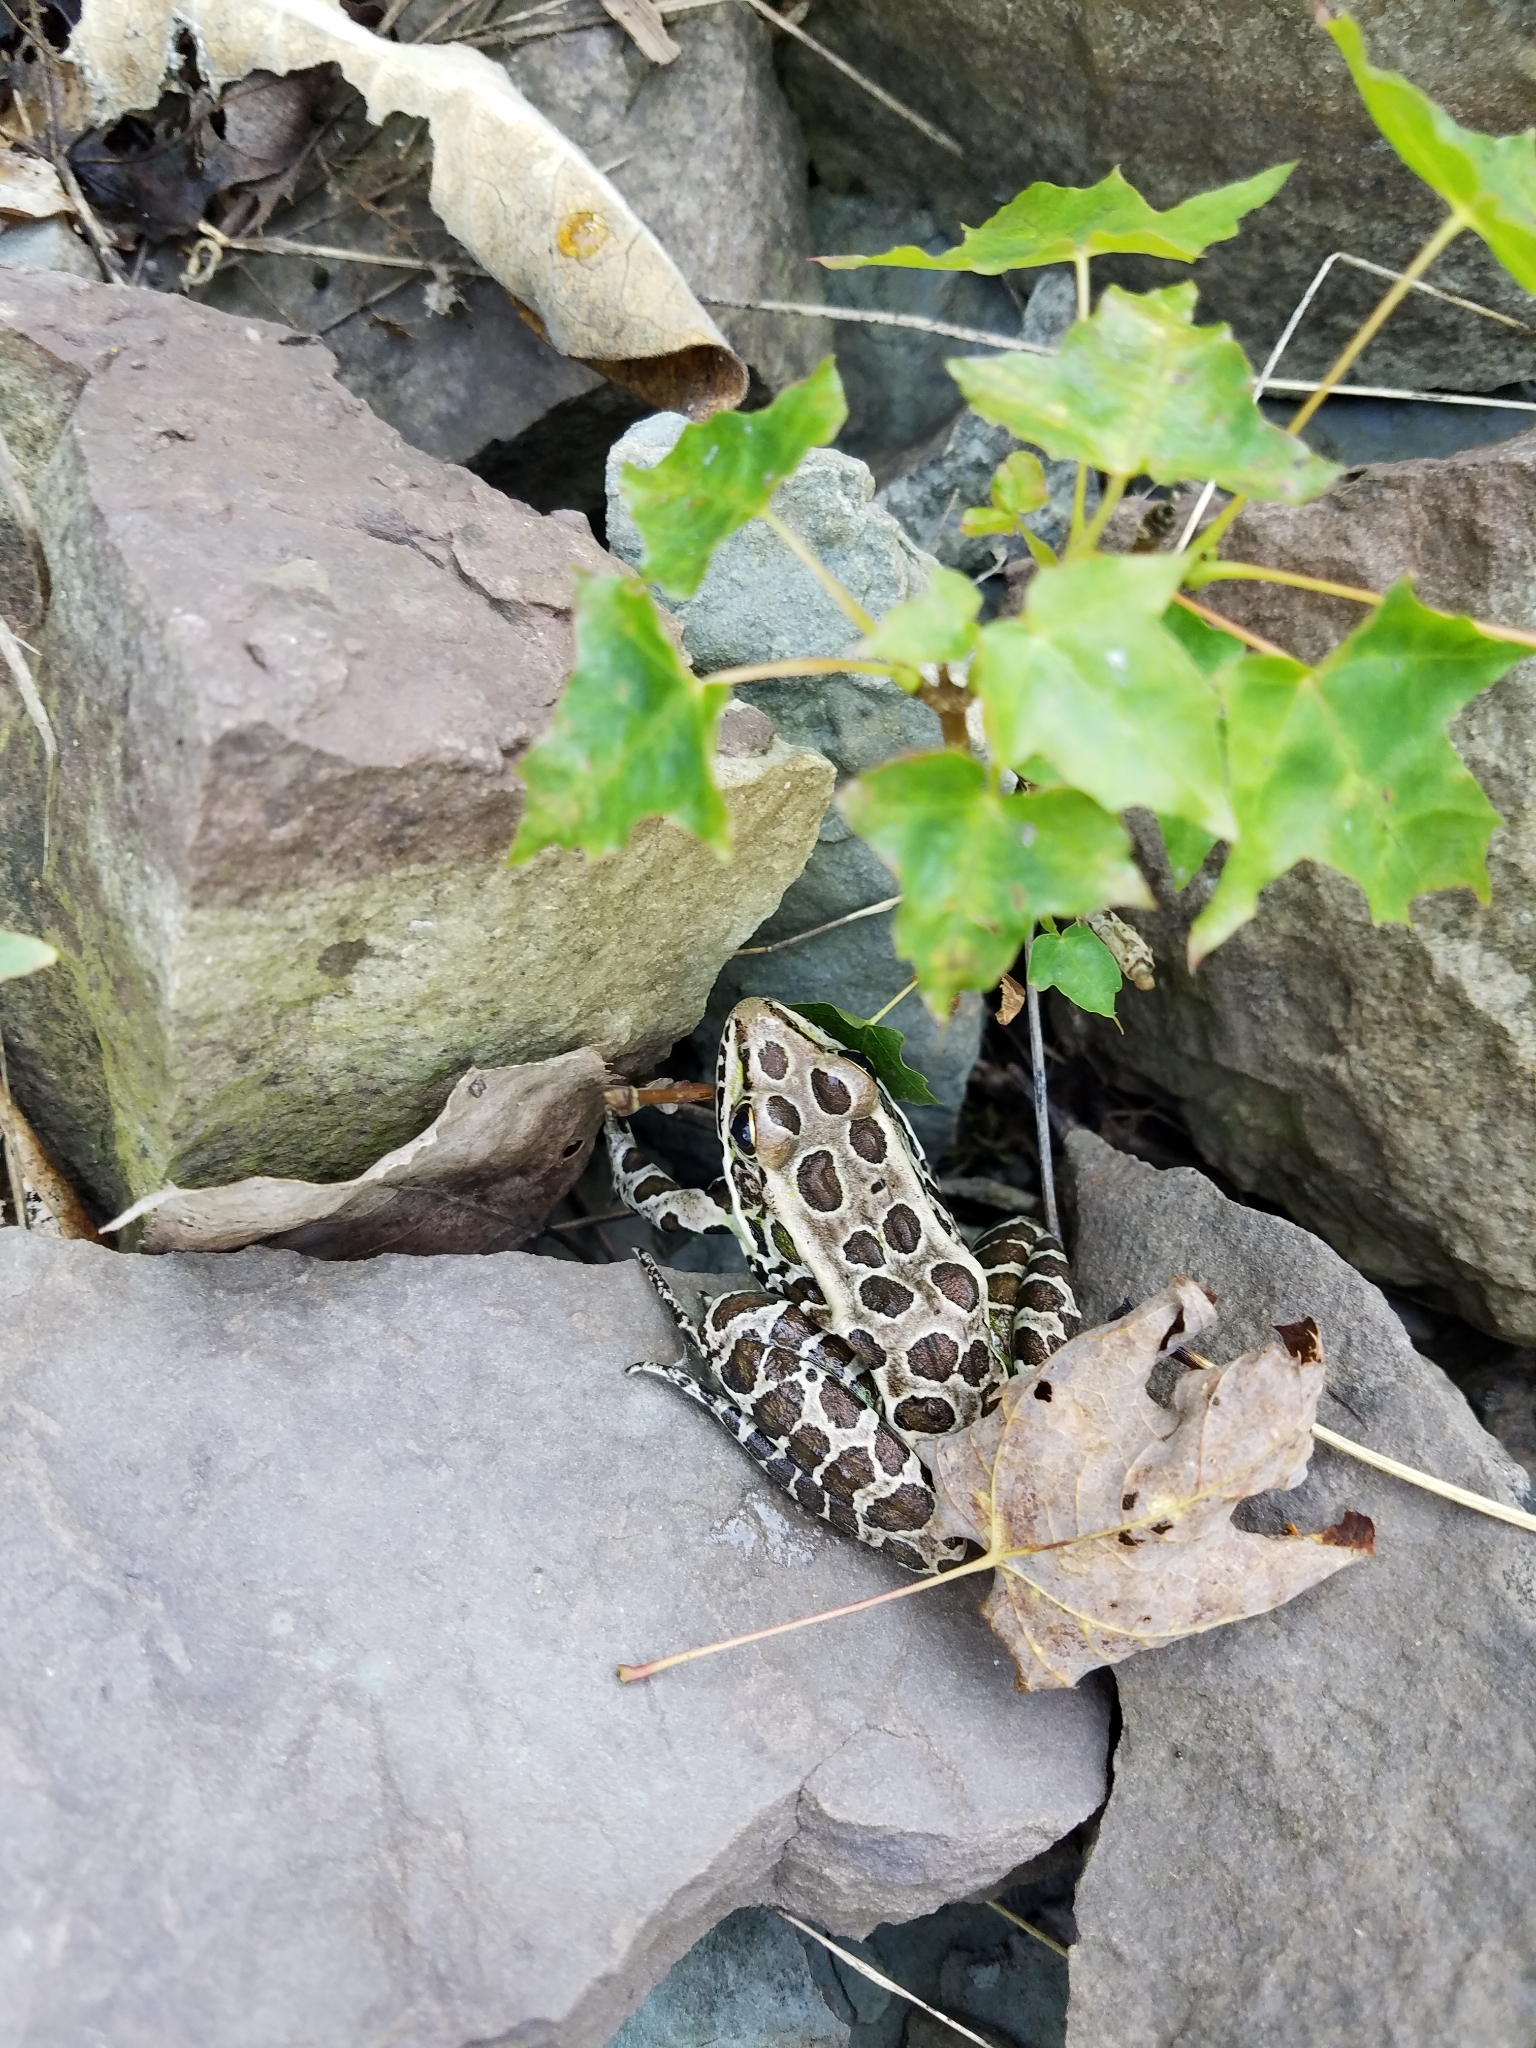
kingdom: Animalia
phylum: Chordata
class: Amphibia
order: Anura
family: Ranidae
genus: Lithobates
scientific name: Lithobates pipiens
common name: Northern leopard frog
